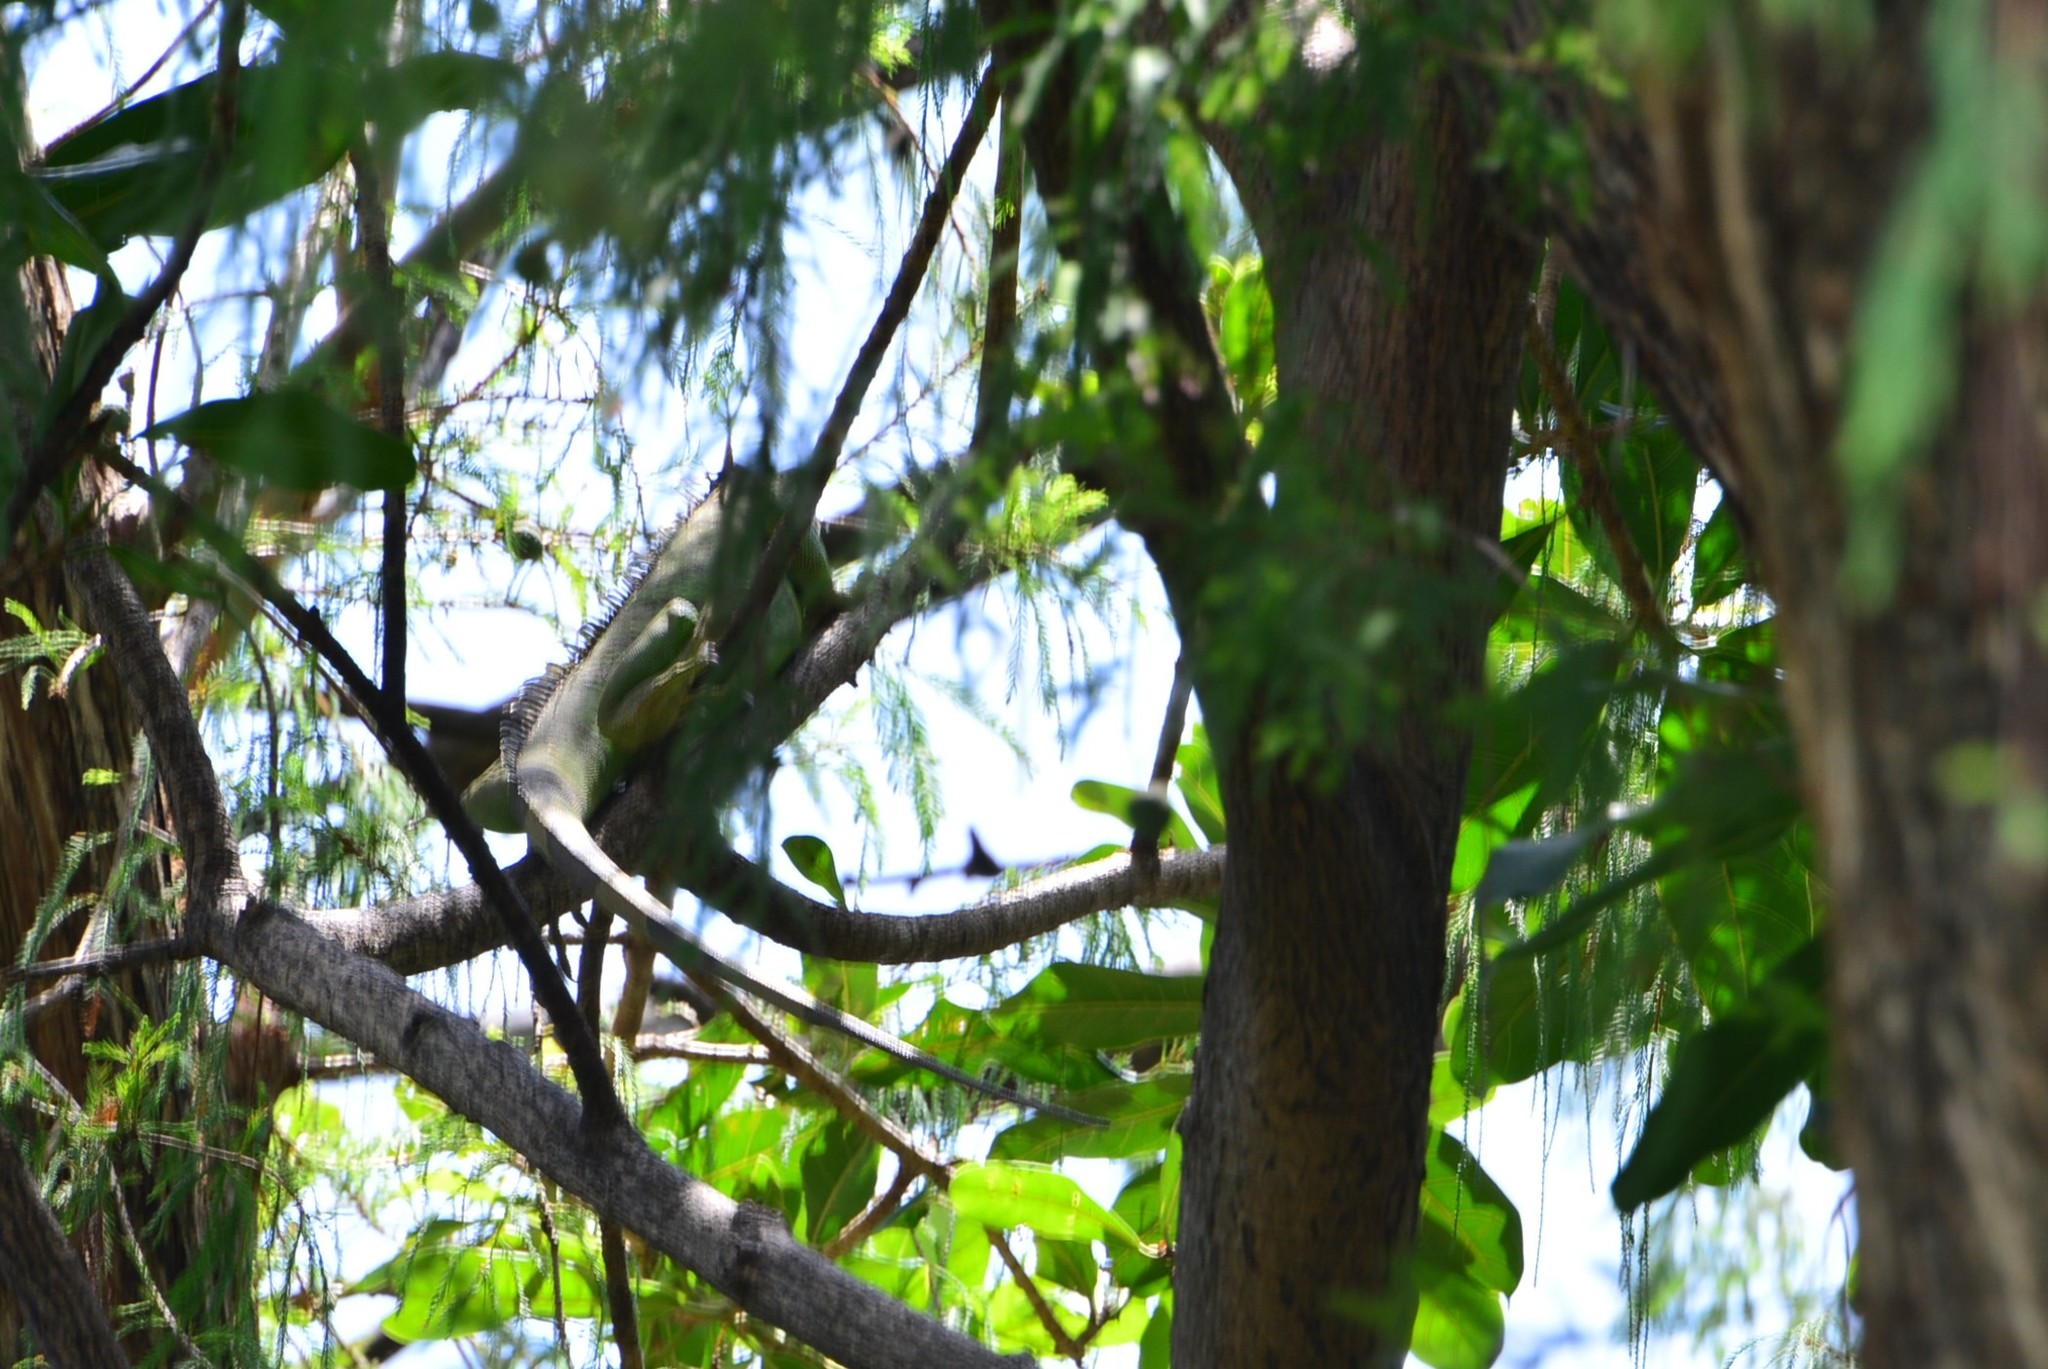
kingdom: Animalia
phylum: Chordata
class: Squamata
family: Iguanidae
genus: Iguana
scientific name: Iguana iguana
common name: Green iguana
